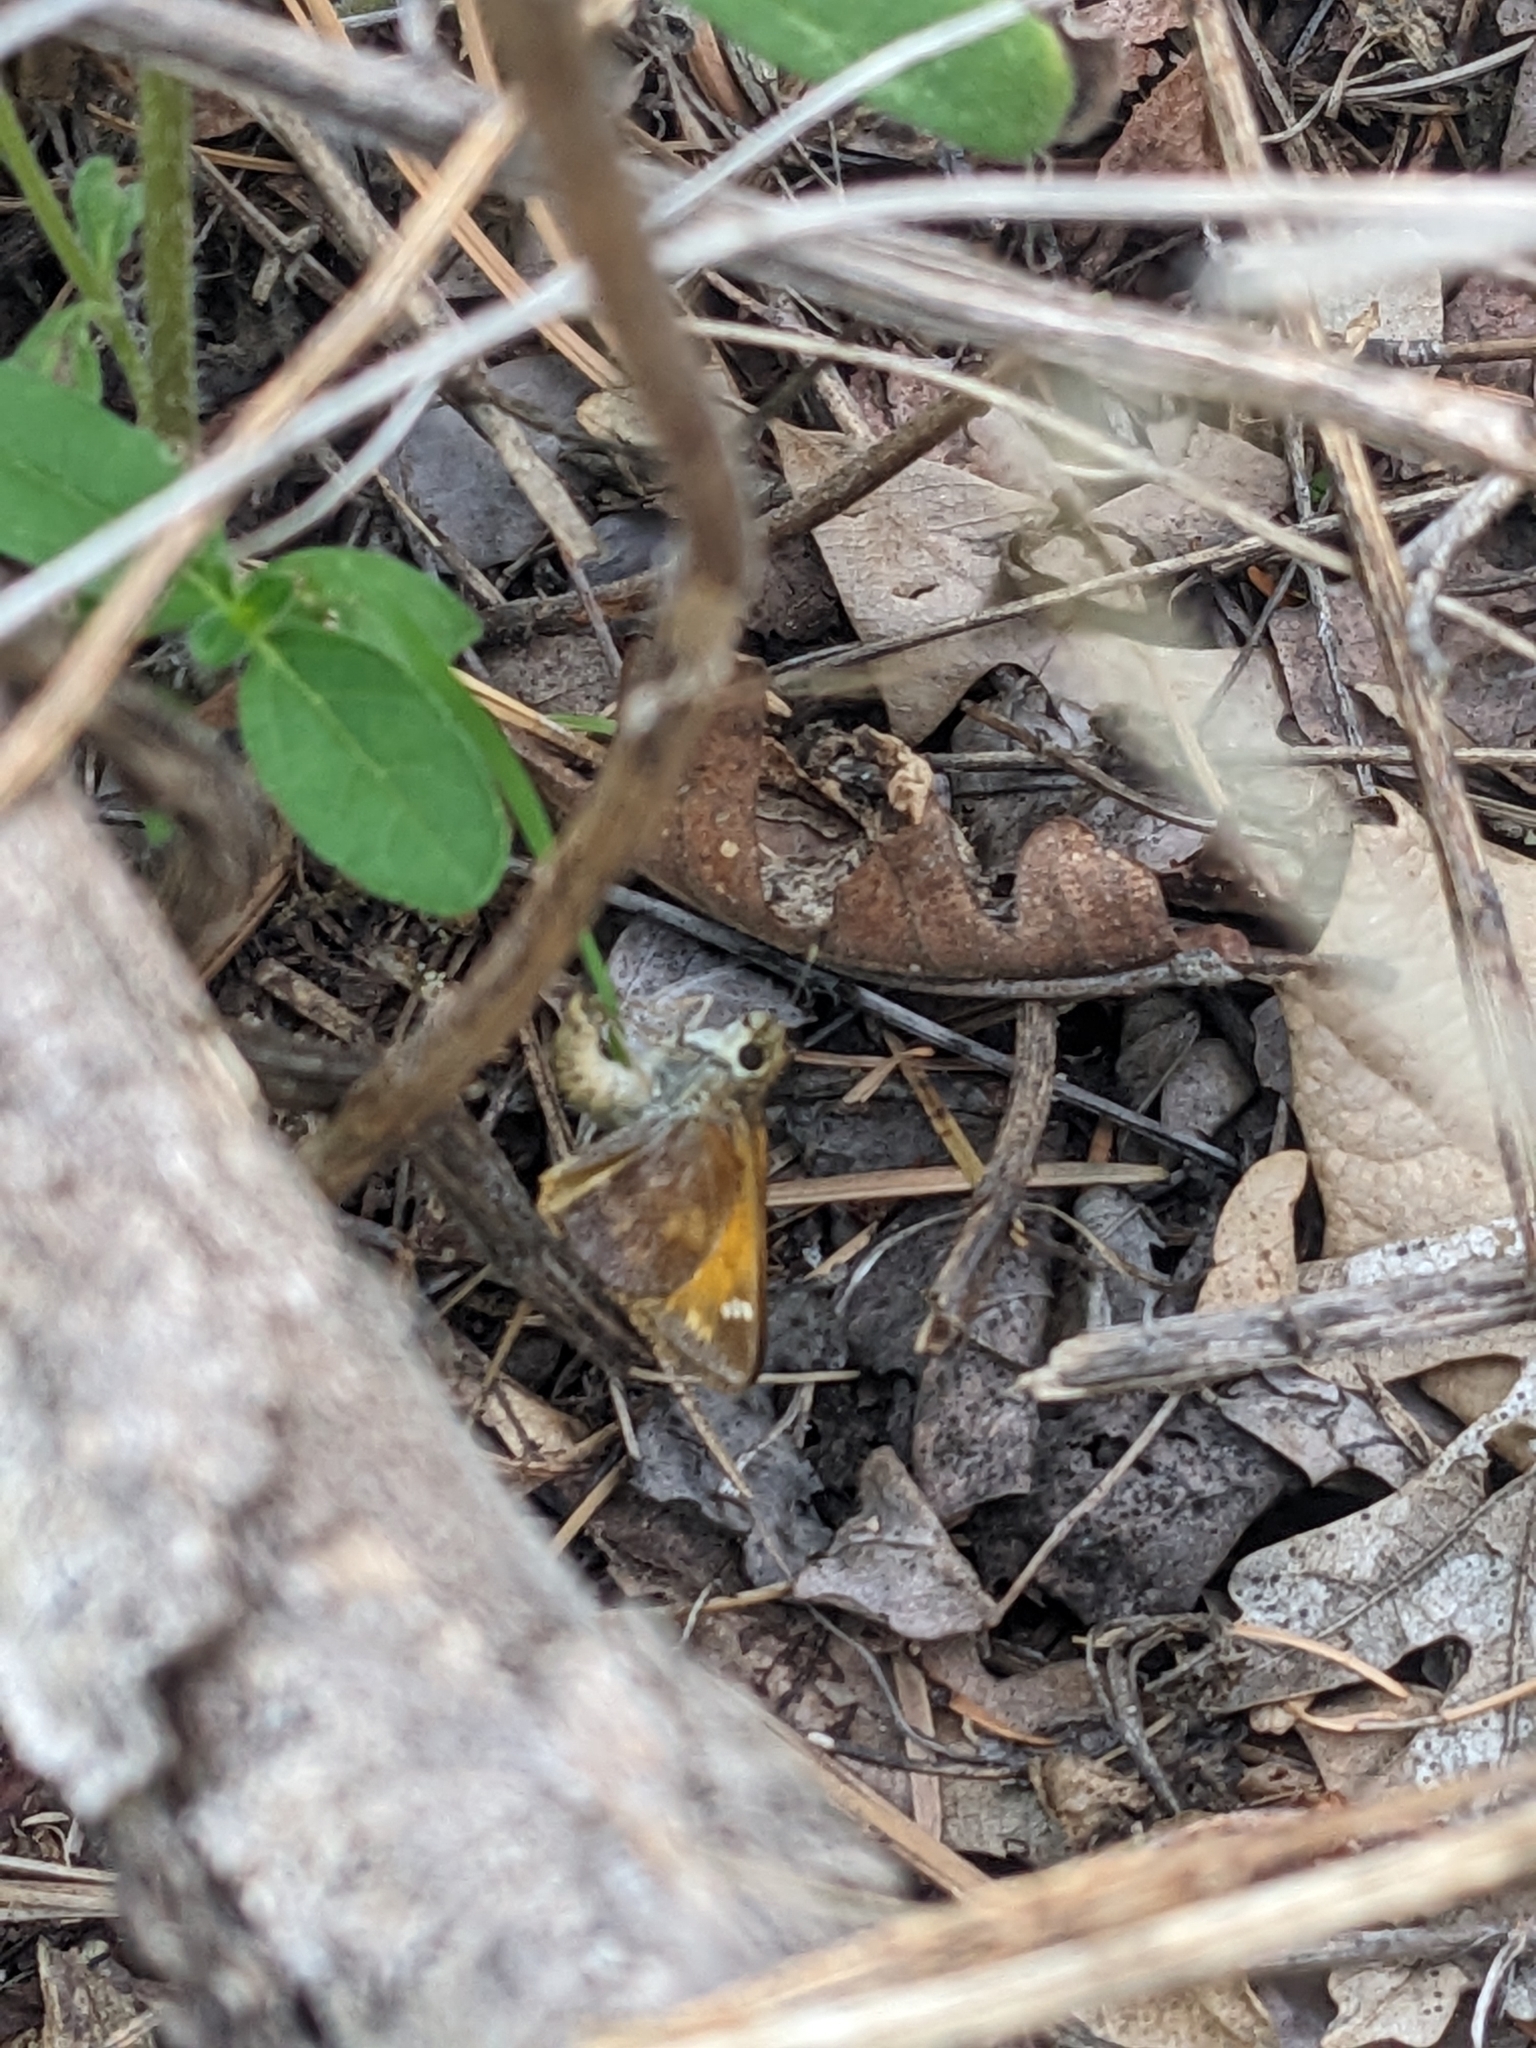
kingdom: Animalia
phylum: Arthropoda
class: Insecta
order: Lepidoptera
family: Hesperiidae
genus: Lon
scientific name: Lon taxiles
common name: Taxiles skipper
